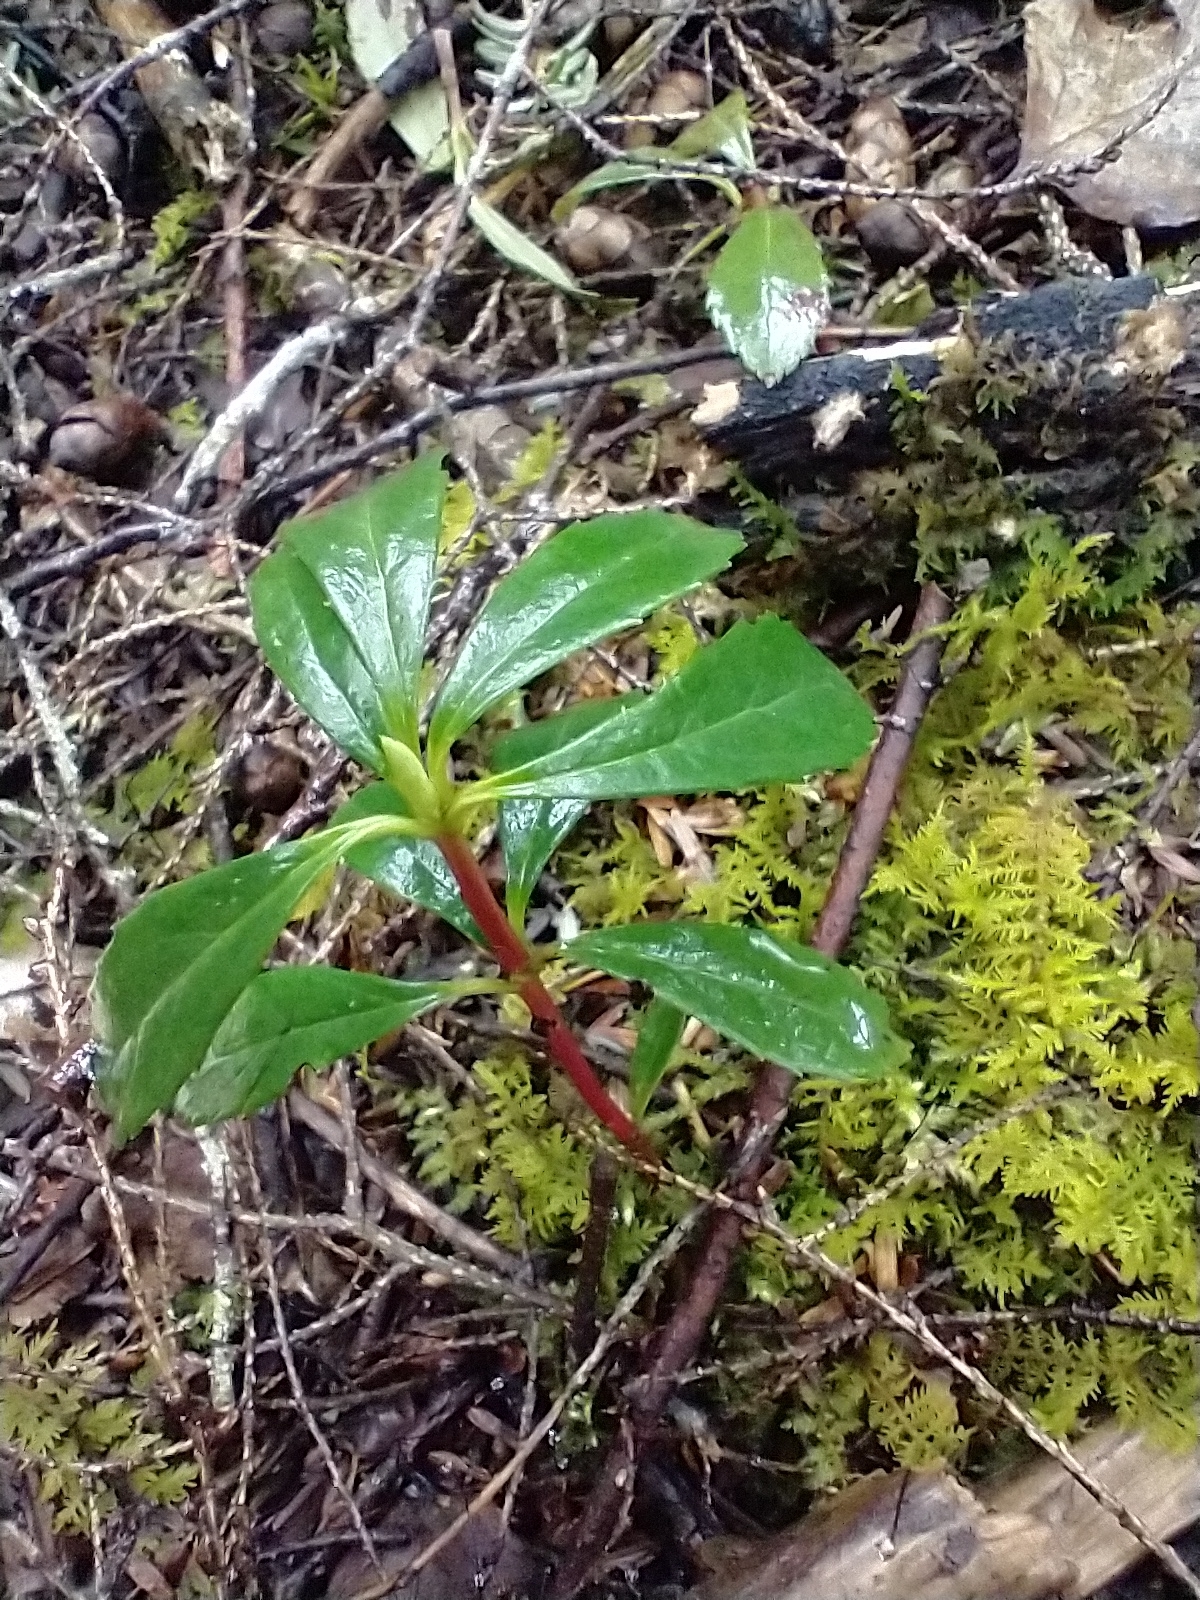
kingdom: Plantae
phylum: Tracheophyta
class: Magnoliopsida
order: Ericales
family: Ericaceae
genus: Chimaphila
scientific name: Chimaphila umbellata
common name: Pipsissewa
